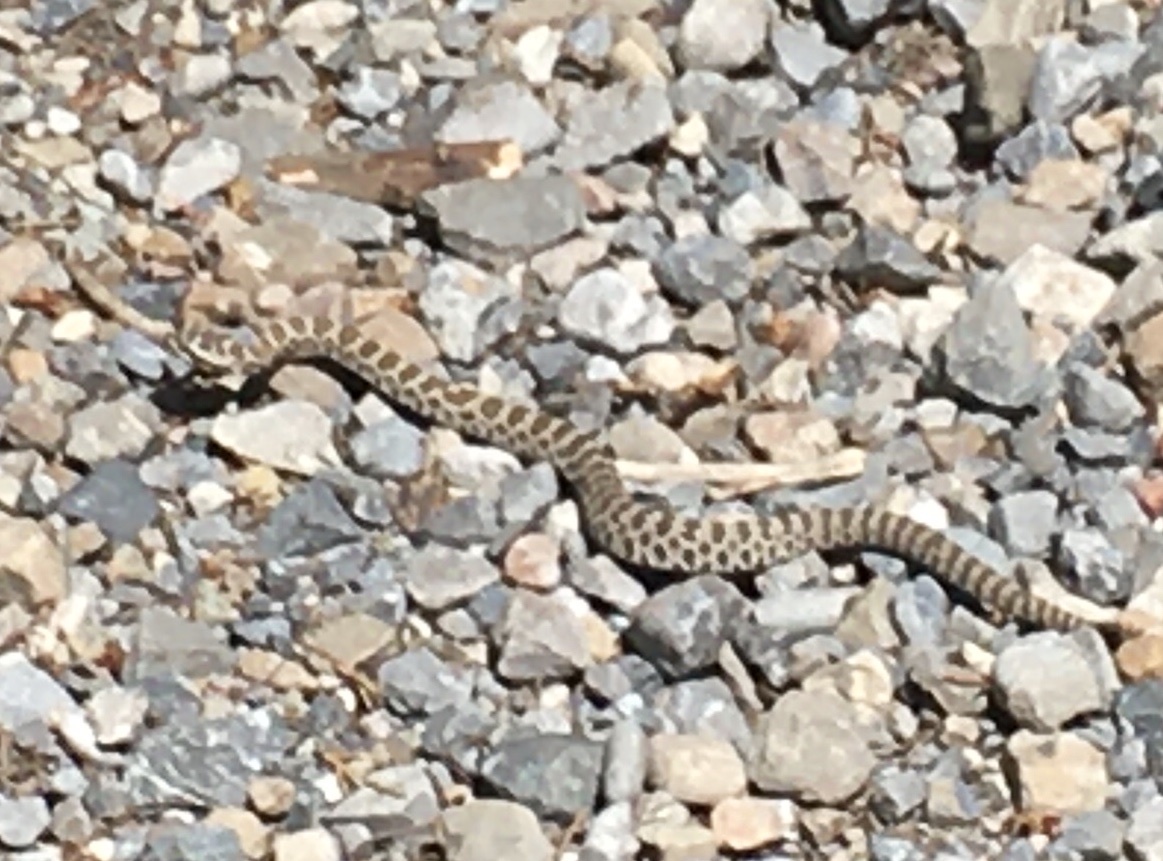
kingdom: Animalia
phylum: Chordata
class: Squamata
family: Viperidae
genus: Crotalus
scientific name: Crotalus oreganus
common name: Abyssus
